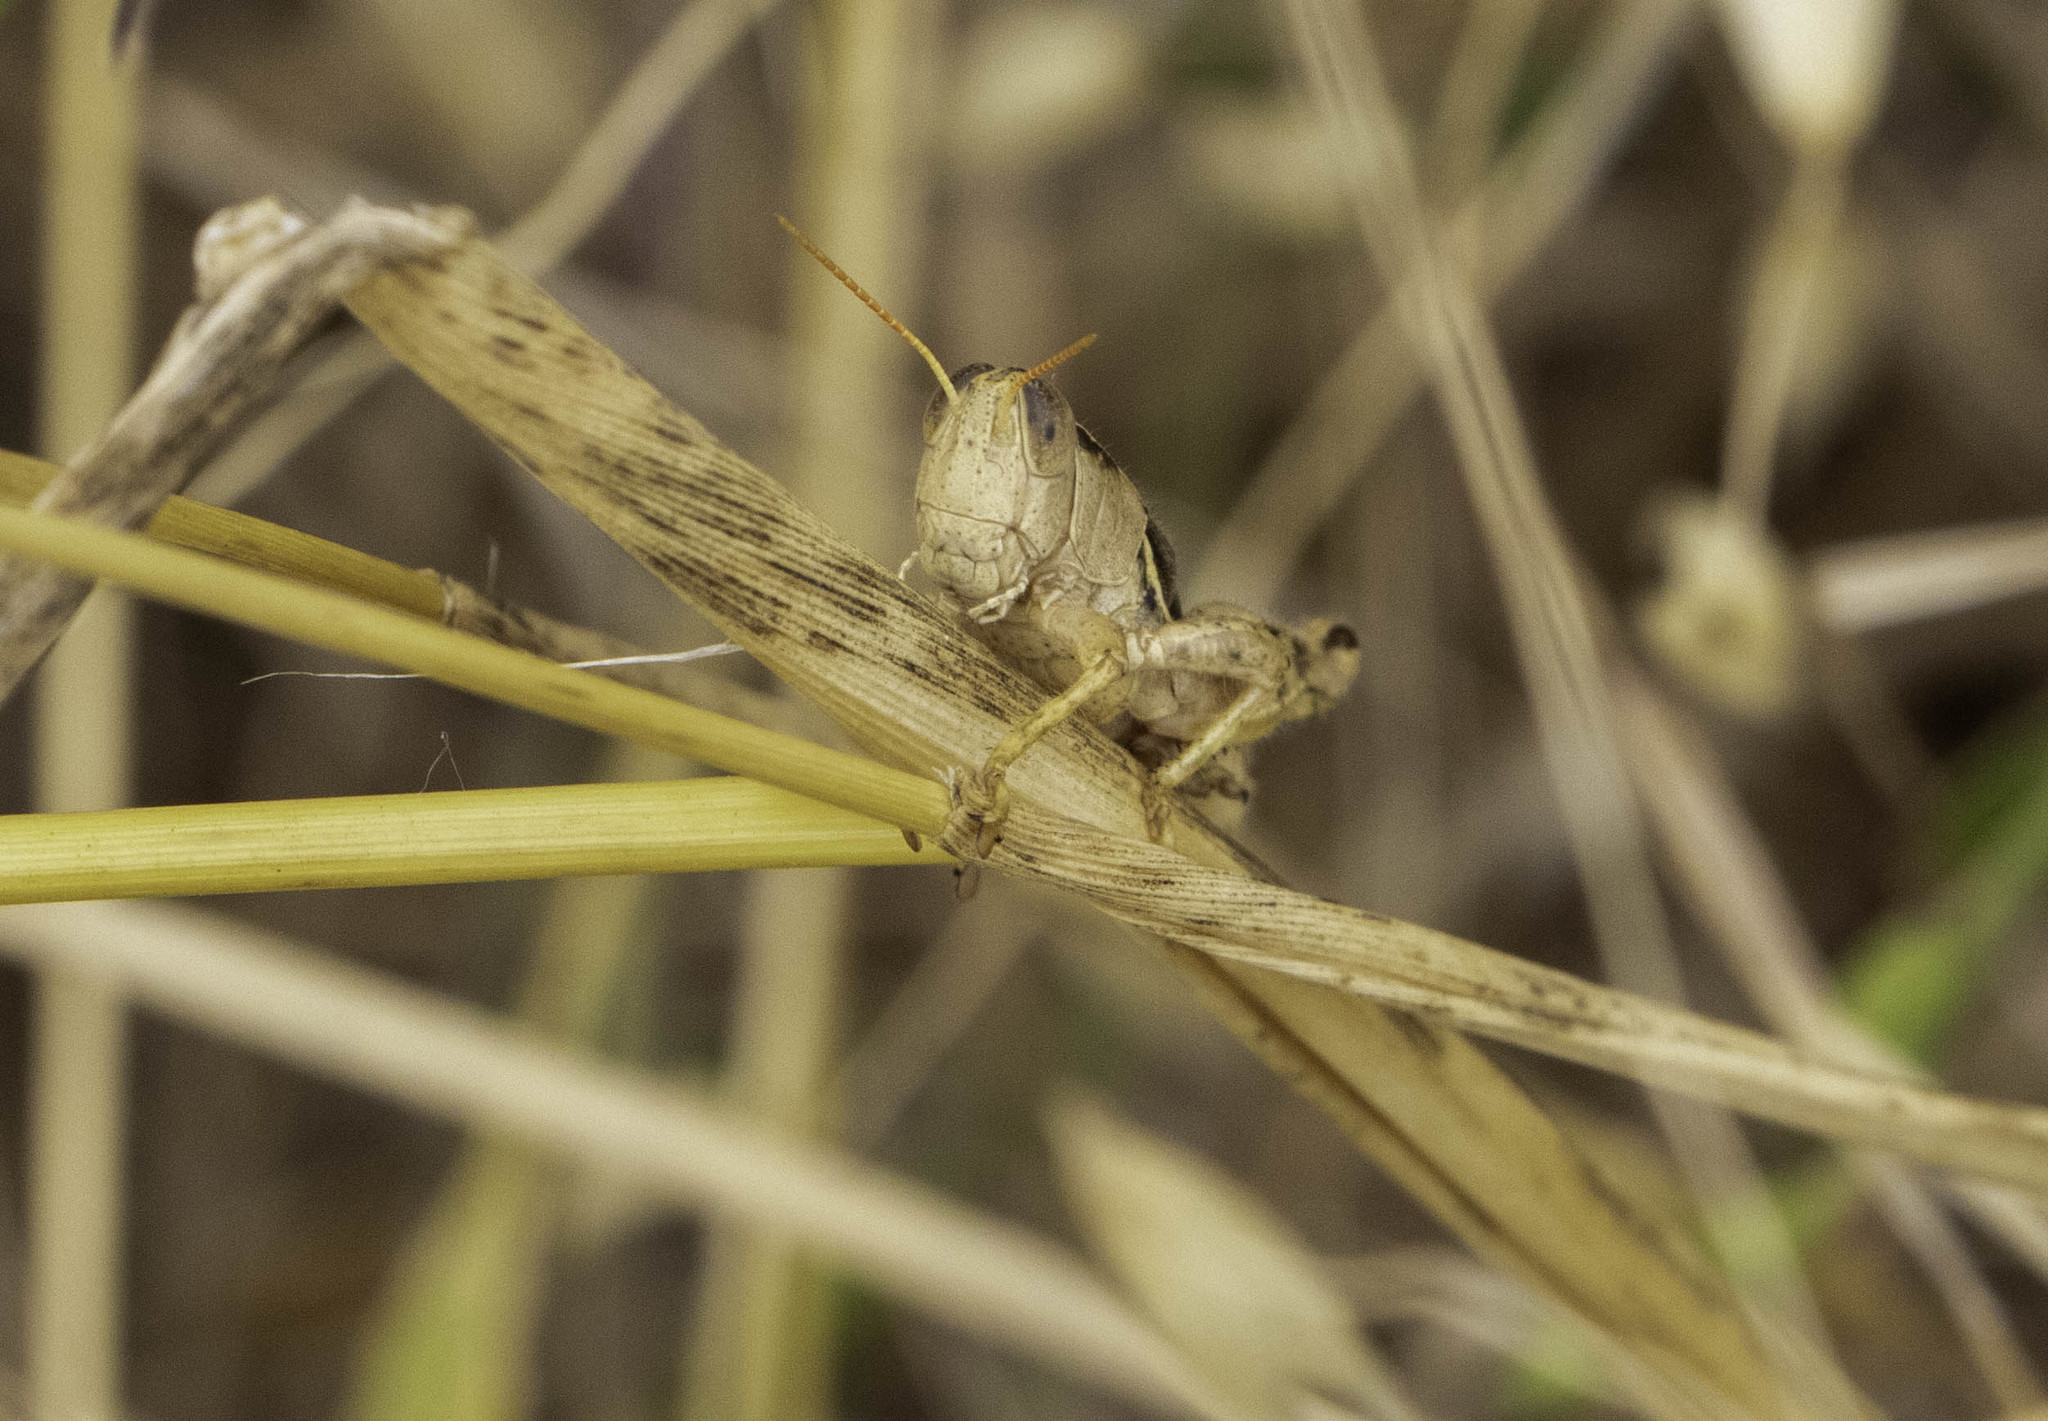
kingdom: Animalia
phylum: Arthropoda
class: Insecta
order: Orthoptera
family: Acrididae
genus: Oedaleonotus
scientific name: Oedaleonotus phryneicus
